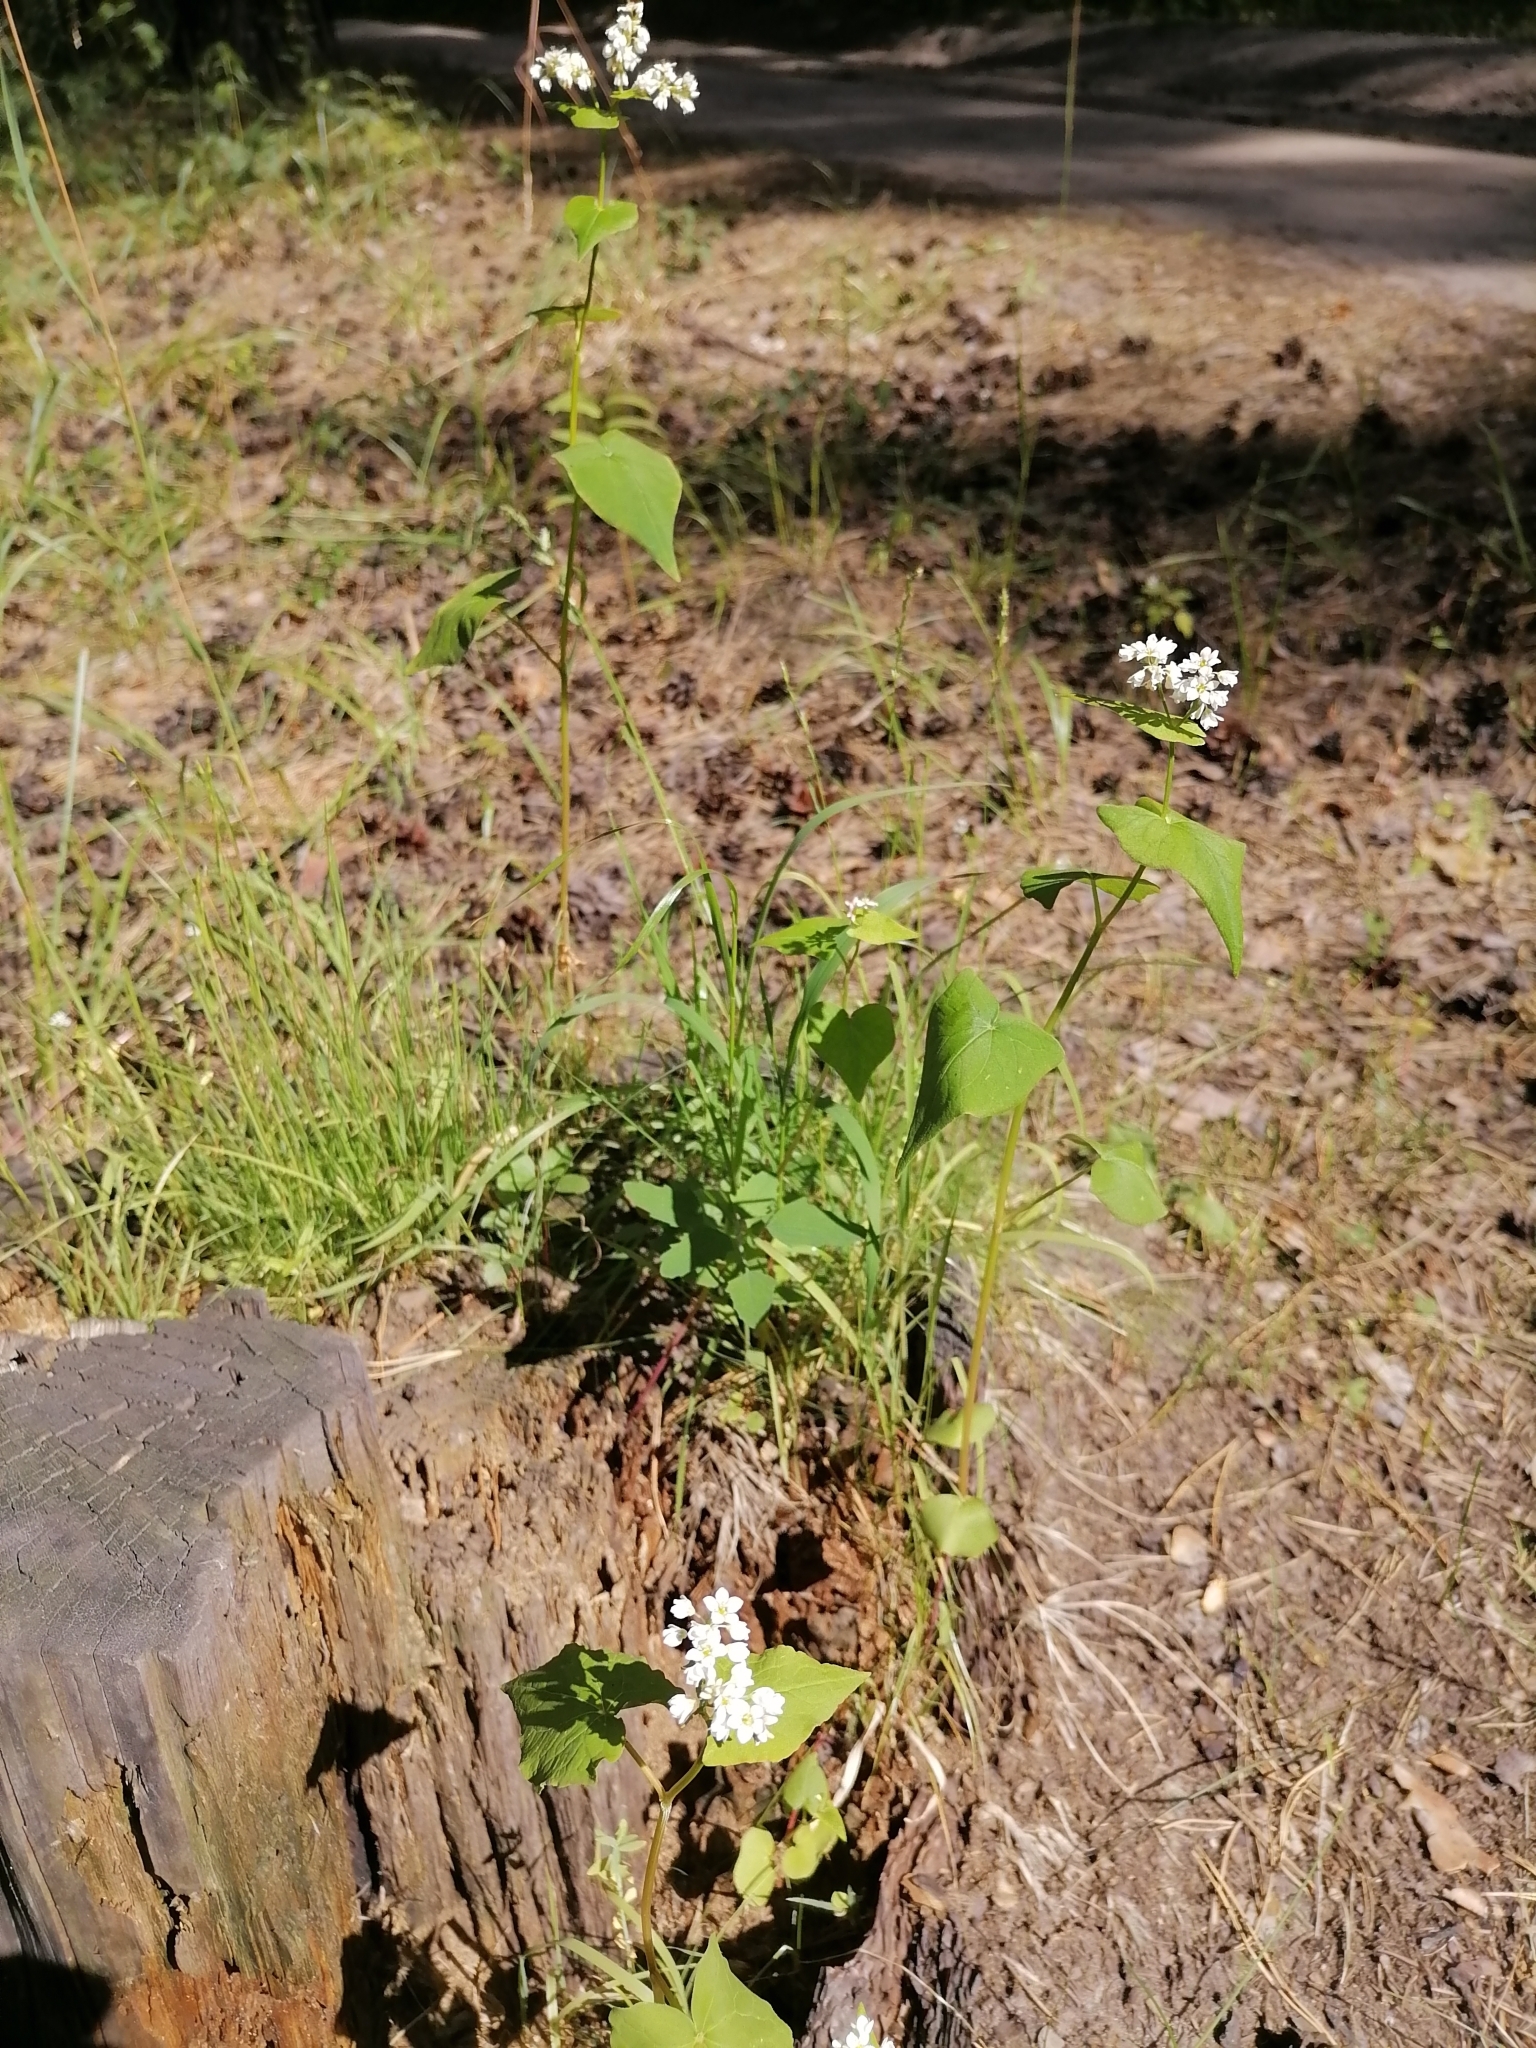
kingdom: Plantae
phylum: Tracheophyta
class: Magnoliopsida
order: Caryophyllales
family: Polygonaceae
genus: Fagopyrum
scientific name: Fagopyrum esculentum
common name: Buckwheat
